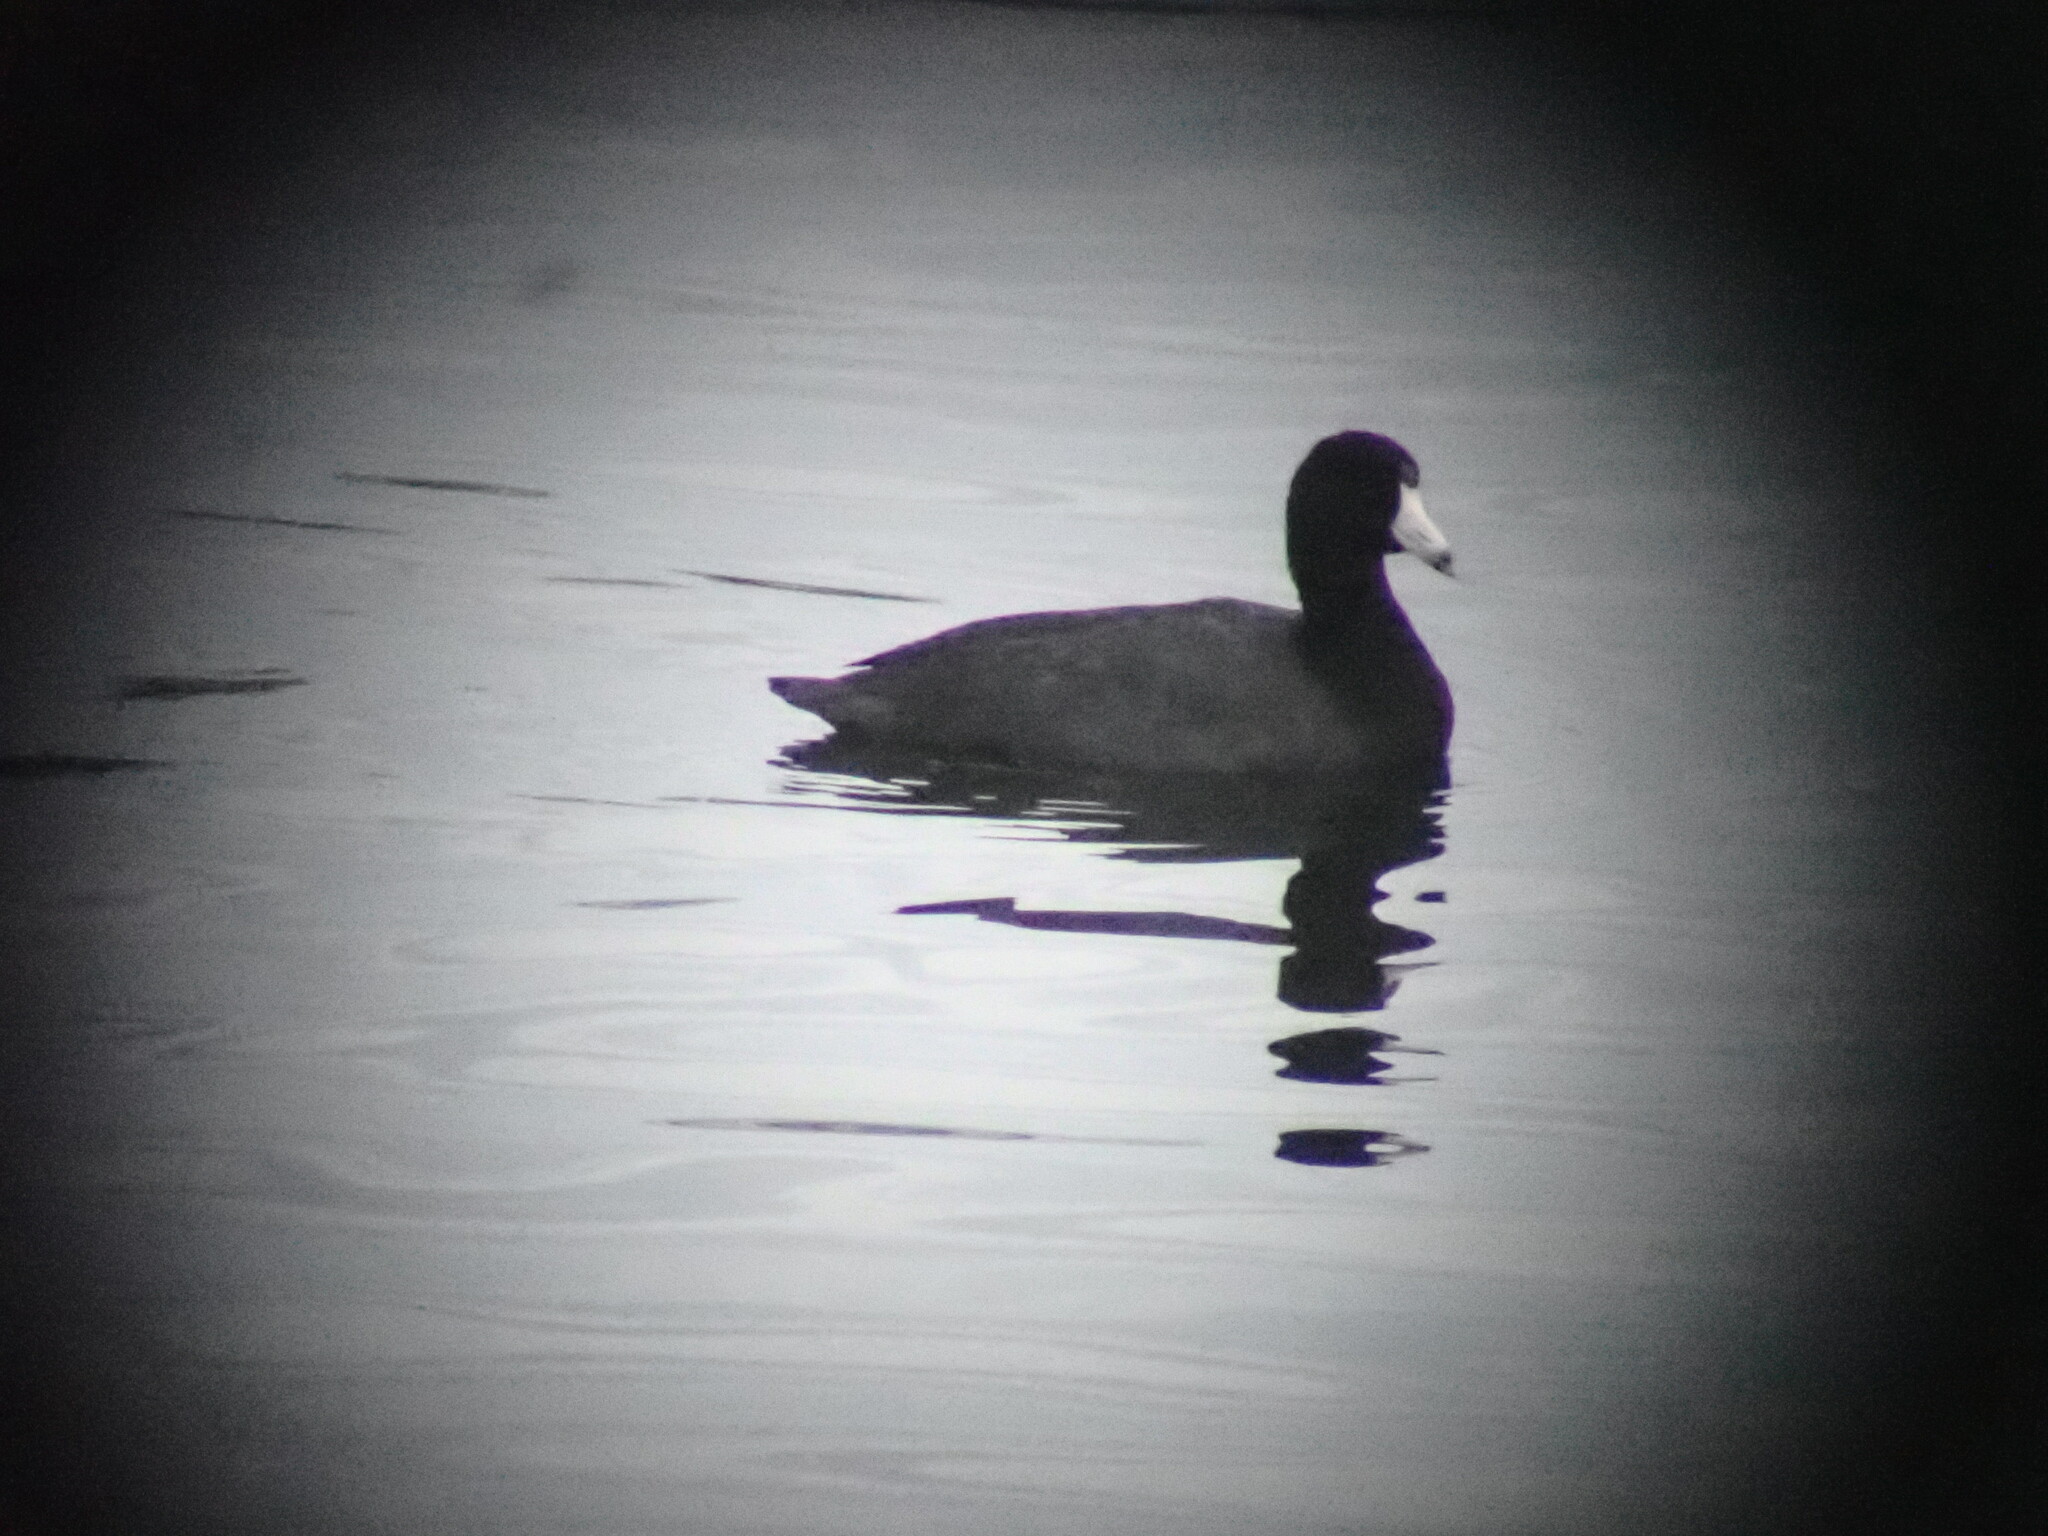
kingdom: Animalia
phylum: Chordata
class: Aves
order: Gruiformes
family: Rallidae
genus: Fulica
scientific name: Fulica americana
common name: American coot
